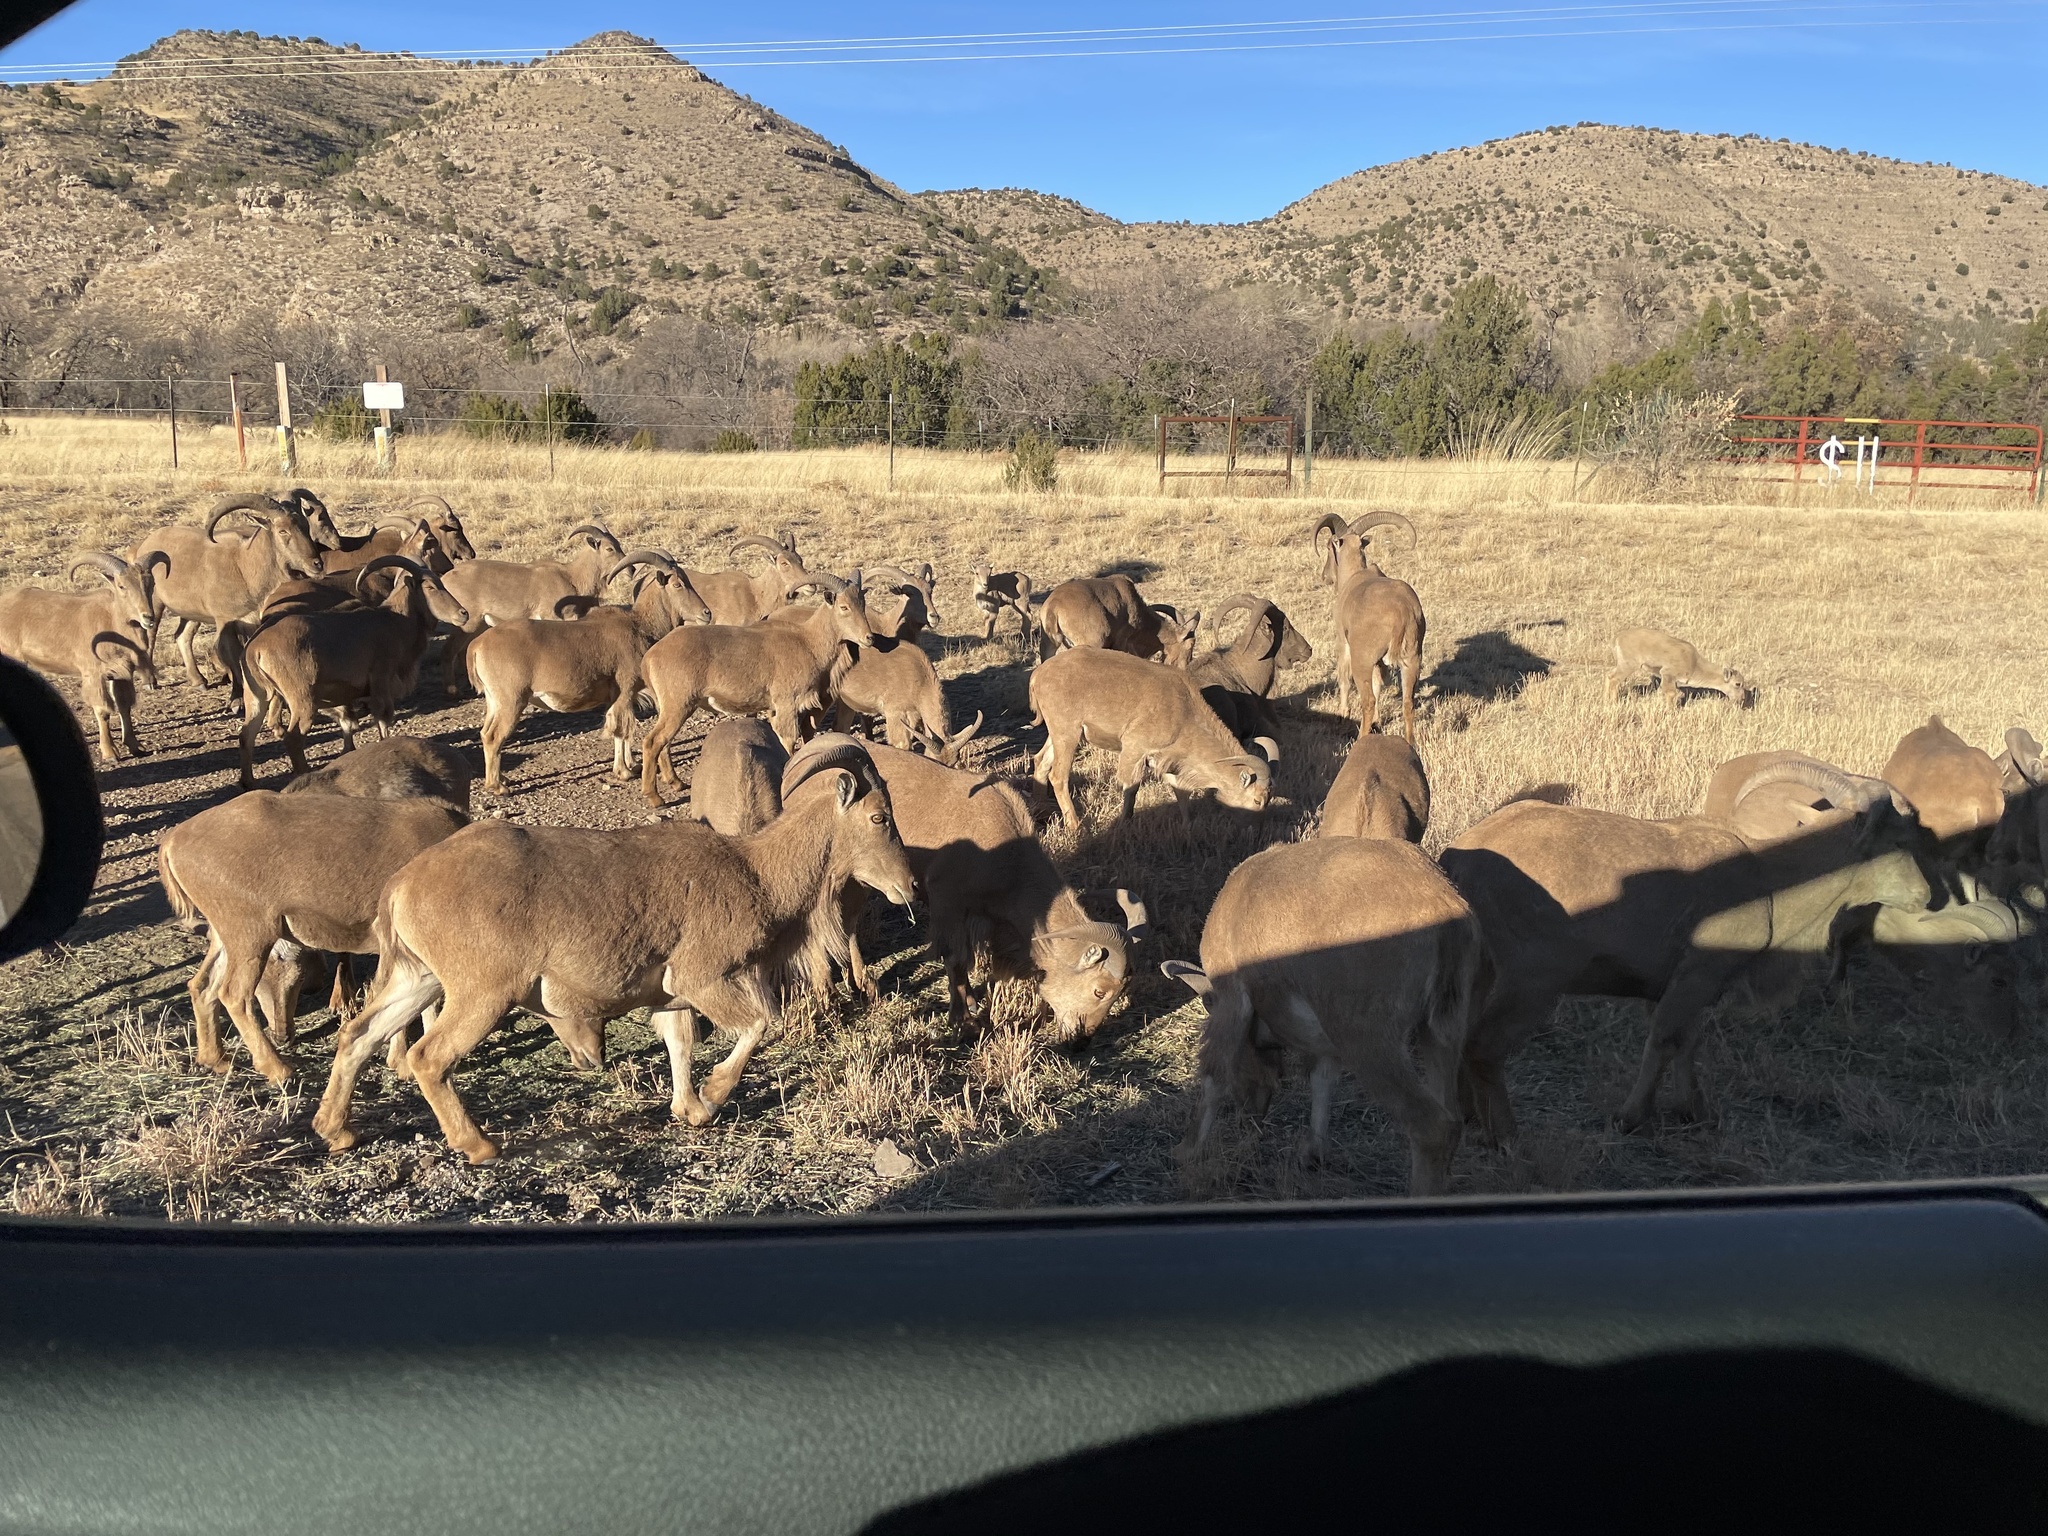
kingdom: Animalia
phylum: Chordata
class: Mammalia
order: Artiodactyla
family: Bovidae
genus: Ammotragus
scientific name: Ammotragus lervia
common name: Barbary sheep
